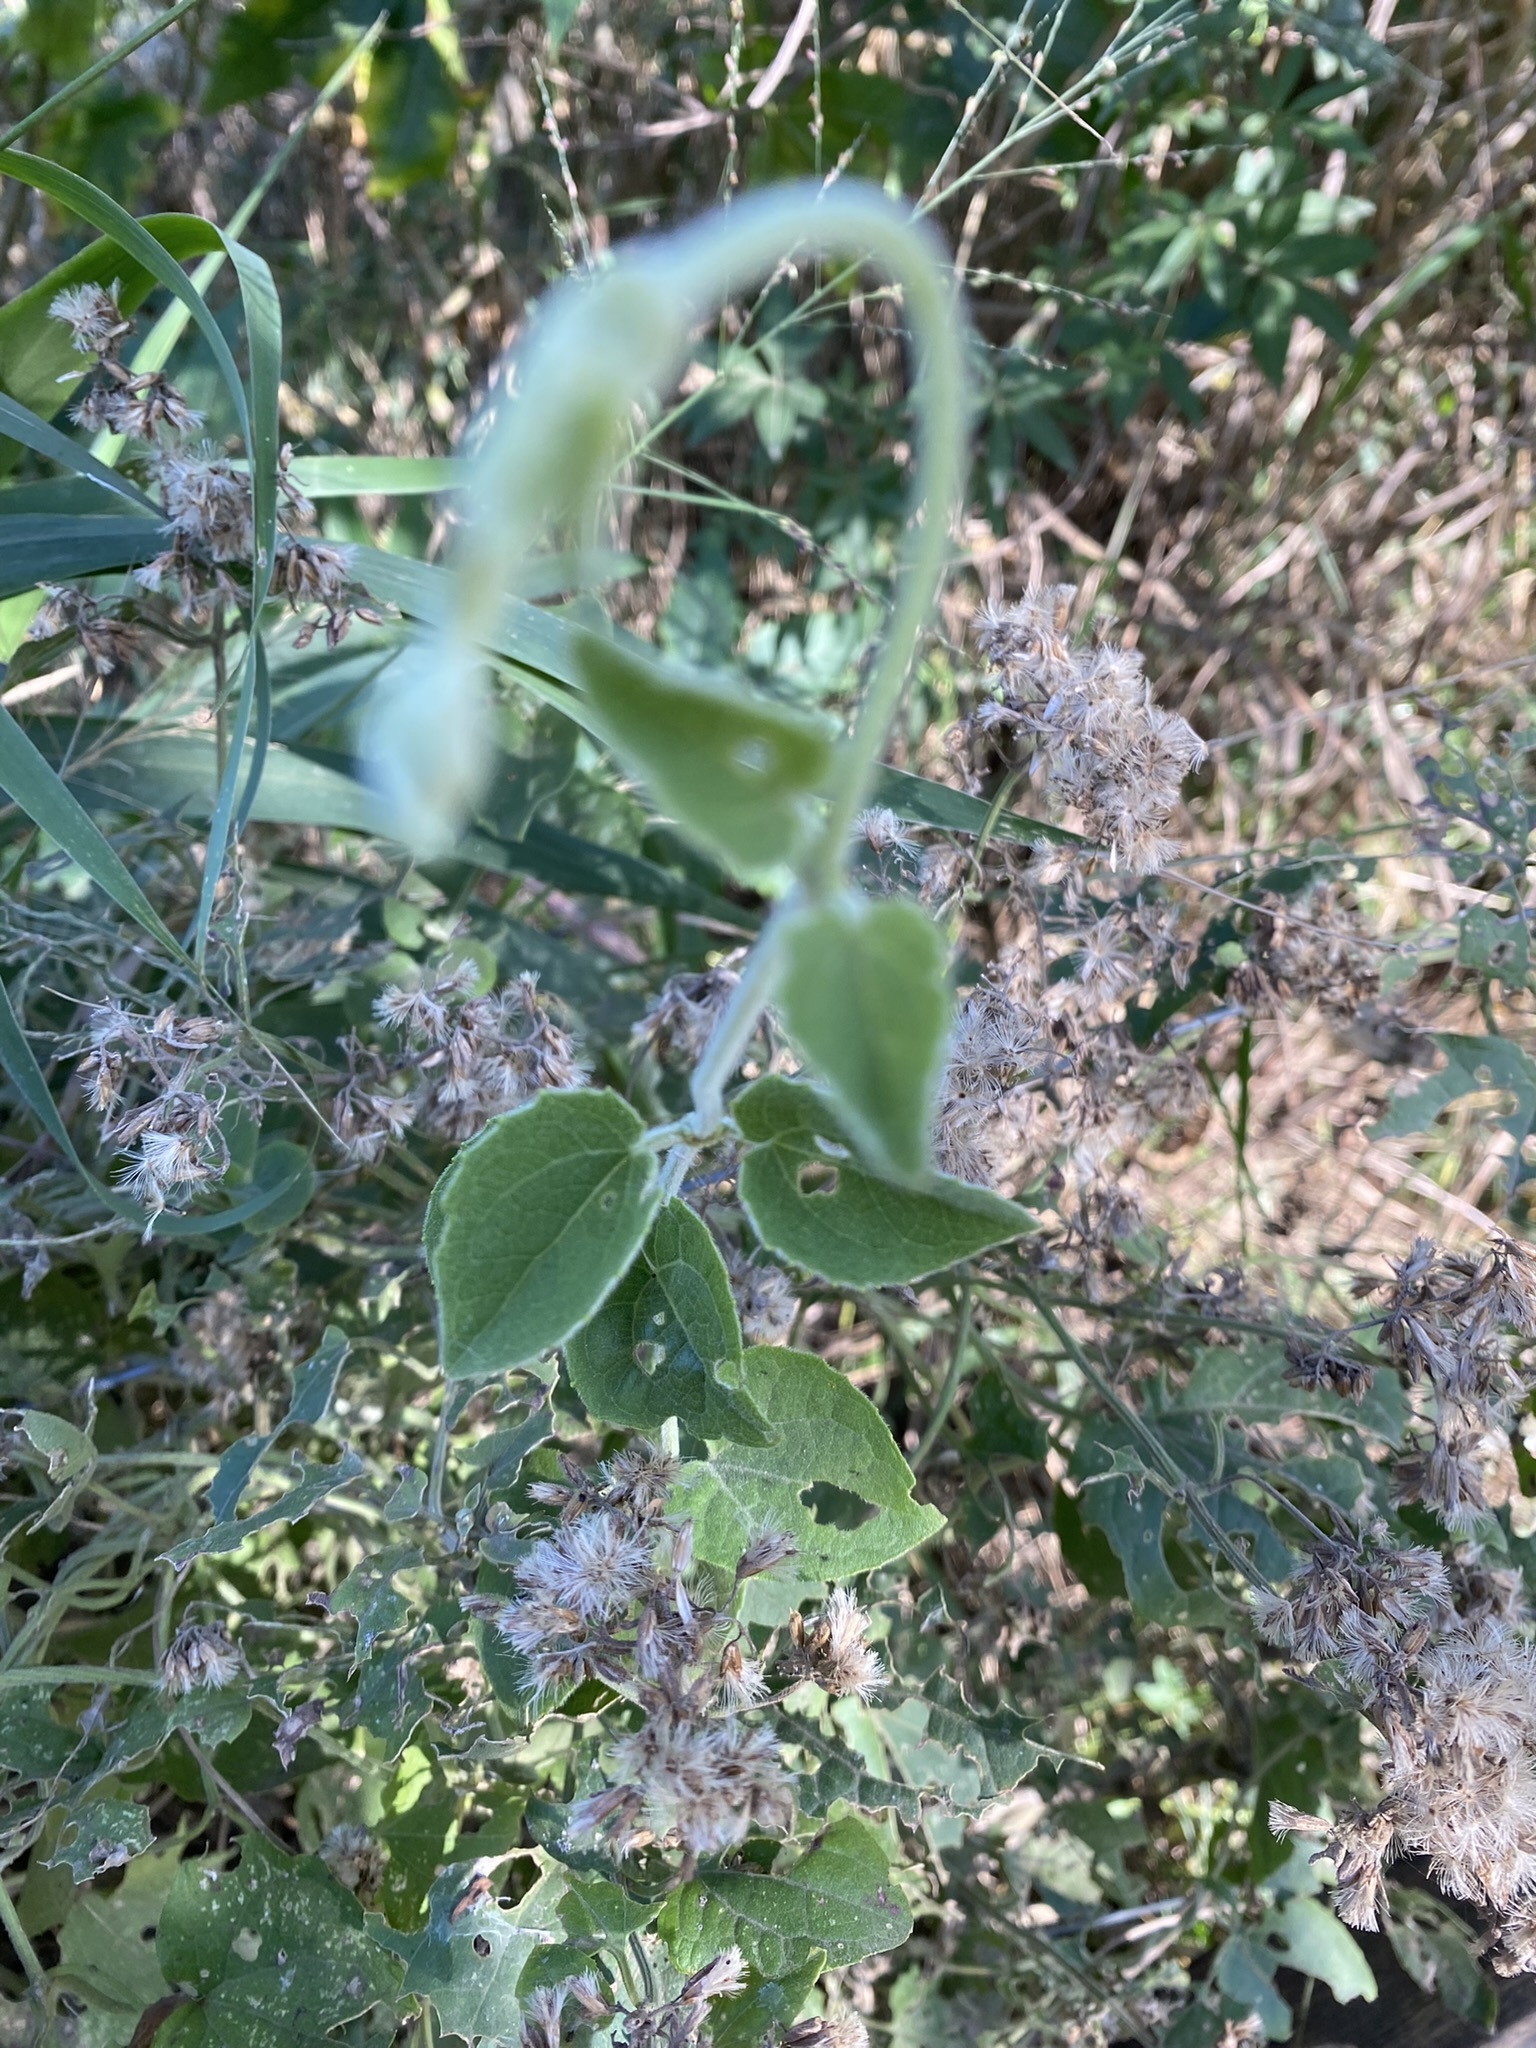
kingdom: Plantae
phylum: Tracheophyta
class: Magnoliopsida
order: Asterales
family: Asteraceae
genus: Mikania
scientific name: Mikania cordifolia
